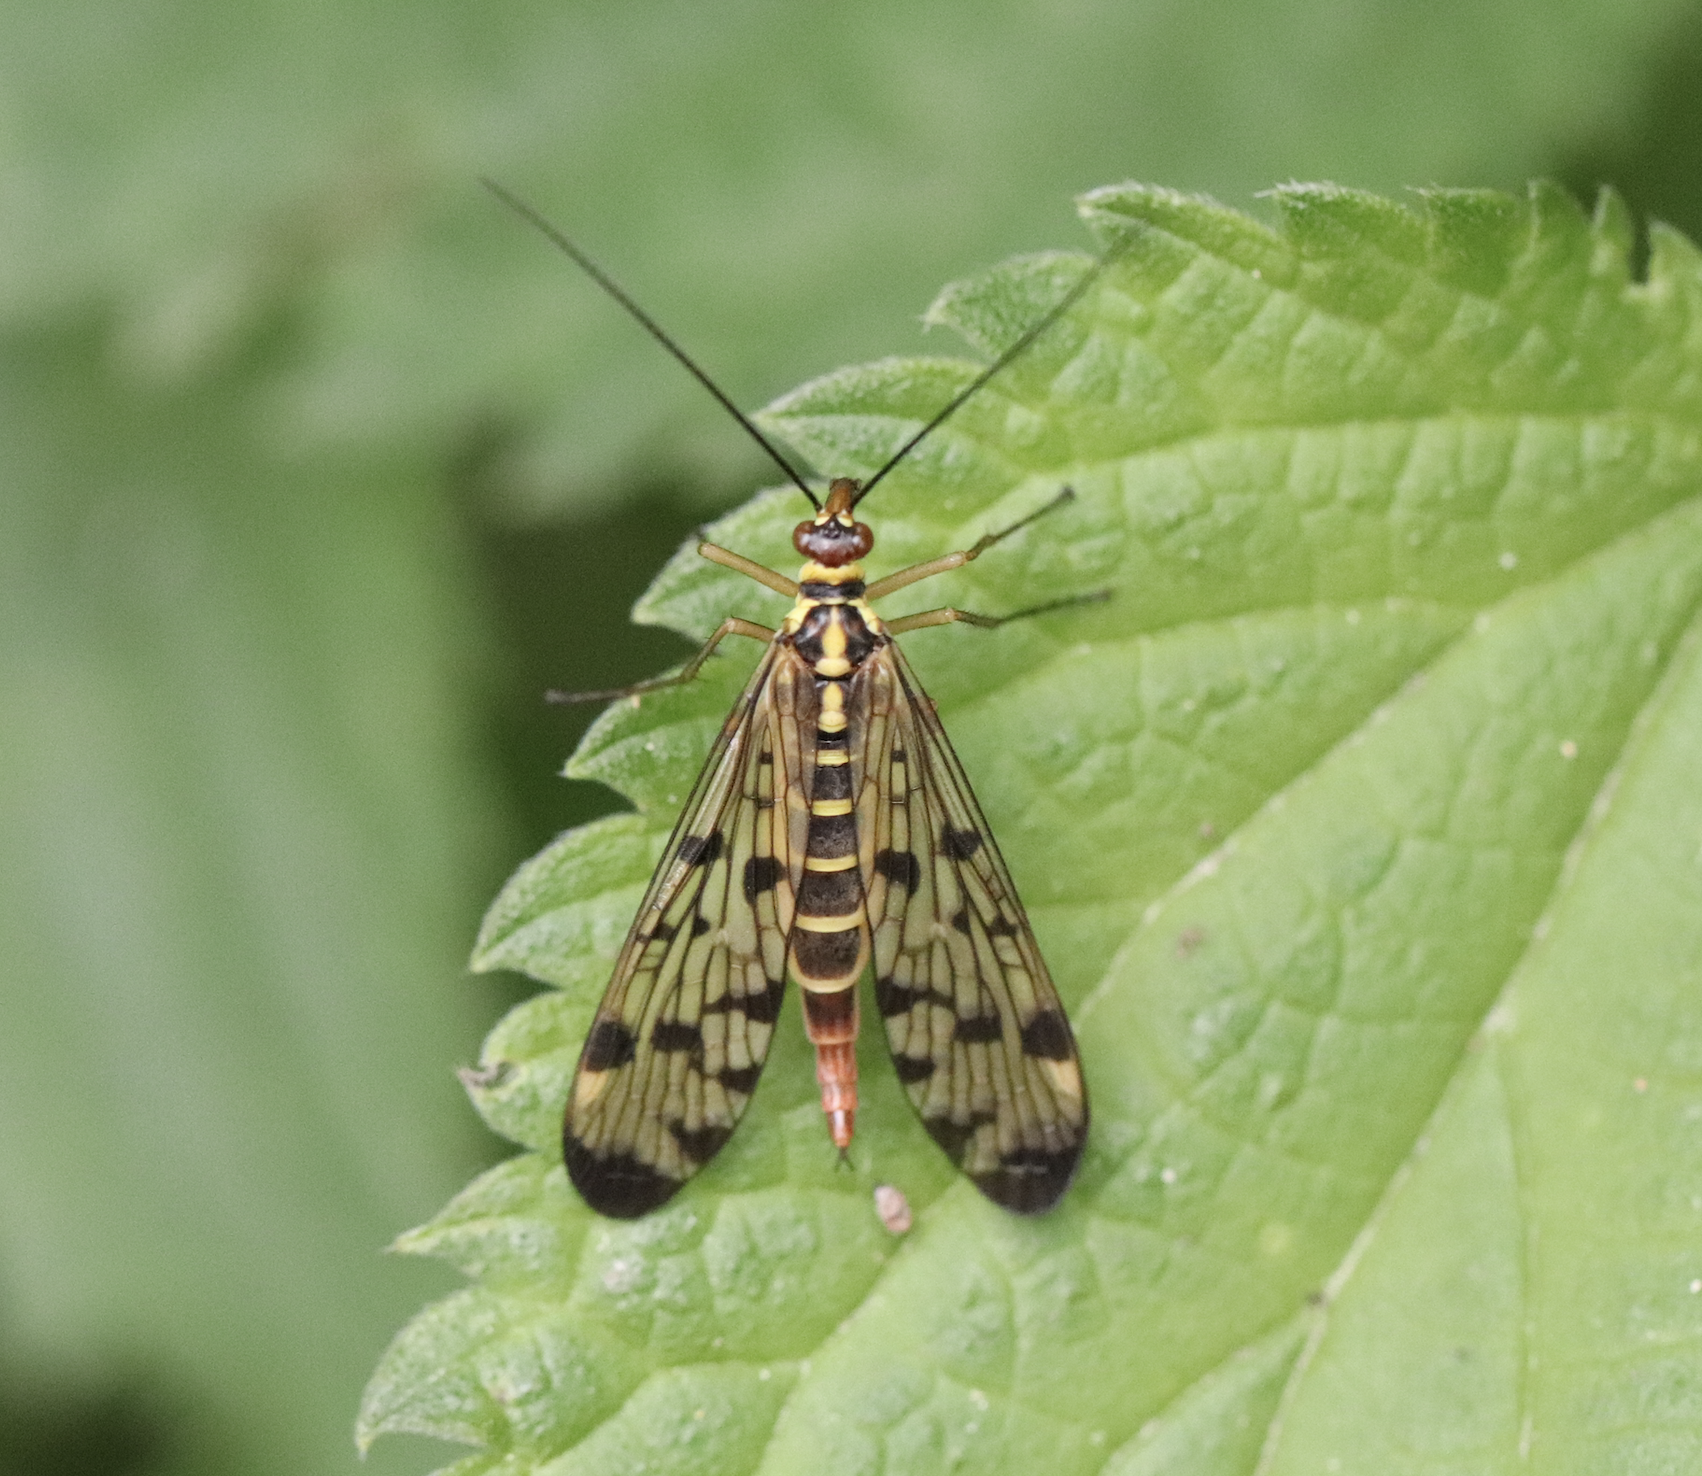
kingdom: Animalia
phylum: Arthropoda
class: Insecta
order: Mecoptera
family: Panorpidae
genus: Panorpa
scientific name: Panorpa germanica
